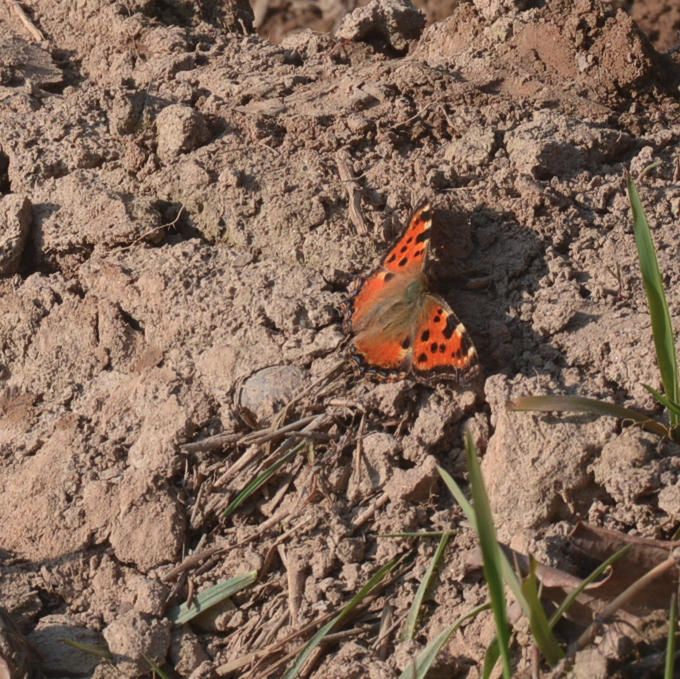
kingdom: Animalia
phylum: Arthropoda
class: Insecta
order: Lepidoptera
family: Nymphalidae
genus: Nymphalis
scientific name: Nymphalis polychloros
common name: Large tortoiseshell
